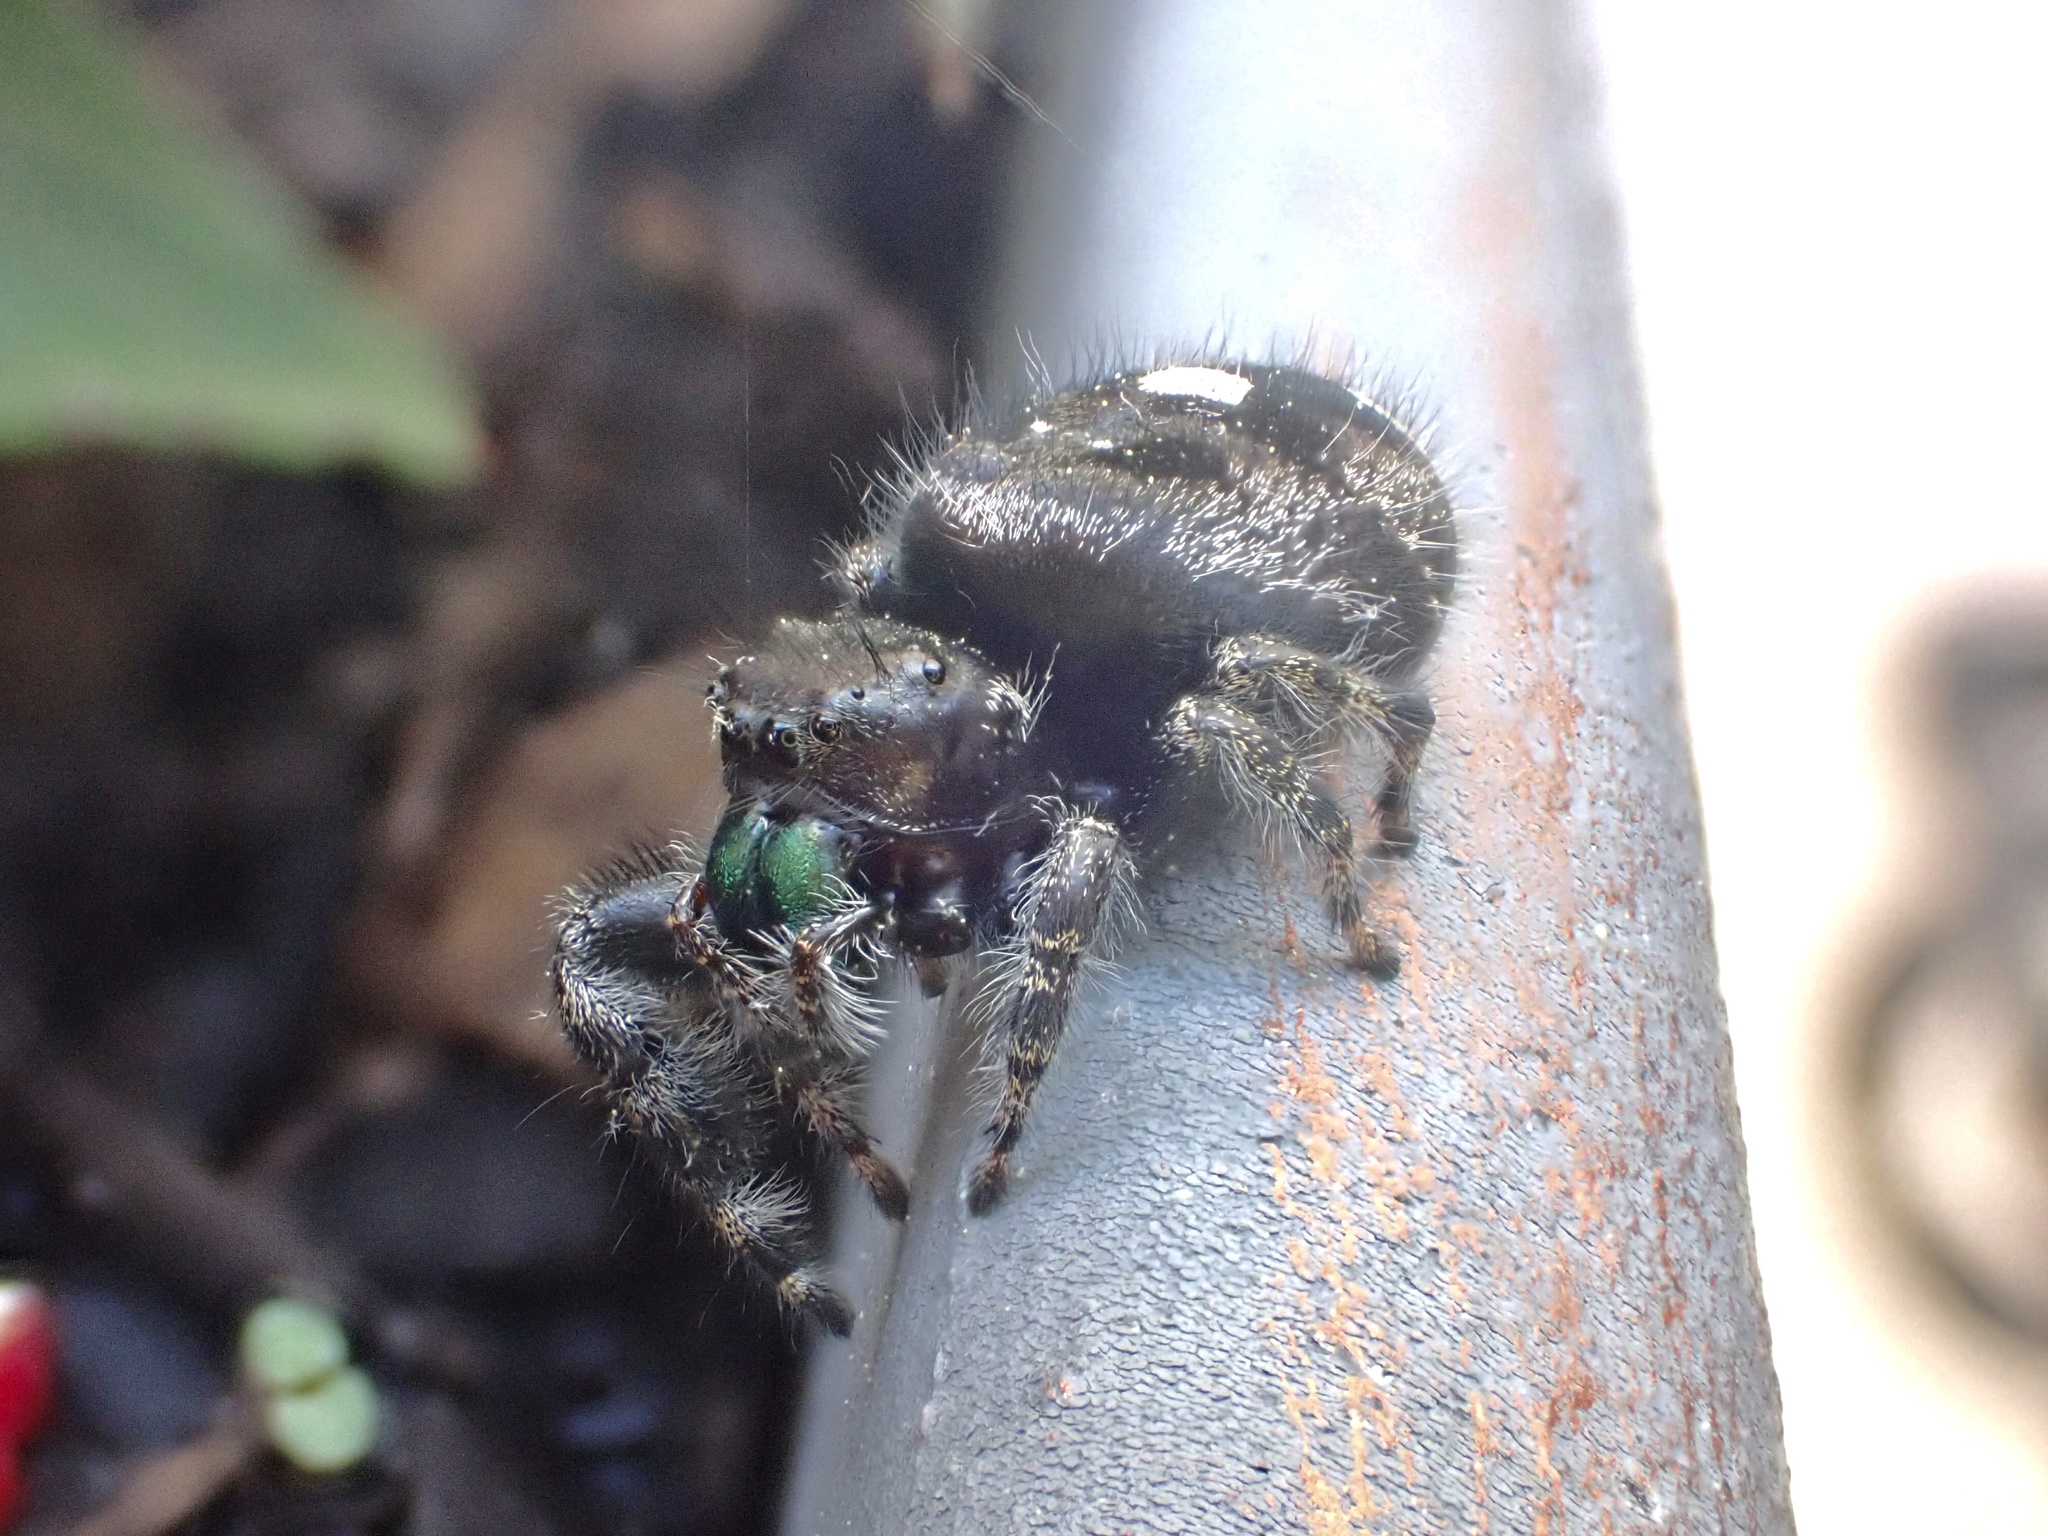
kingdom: Animalia
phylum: Arthropoda
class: Arachnida
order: Araneae
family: Salticidae
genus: Phidippus
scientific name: Phidippus audax
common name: Bold jumper
